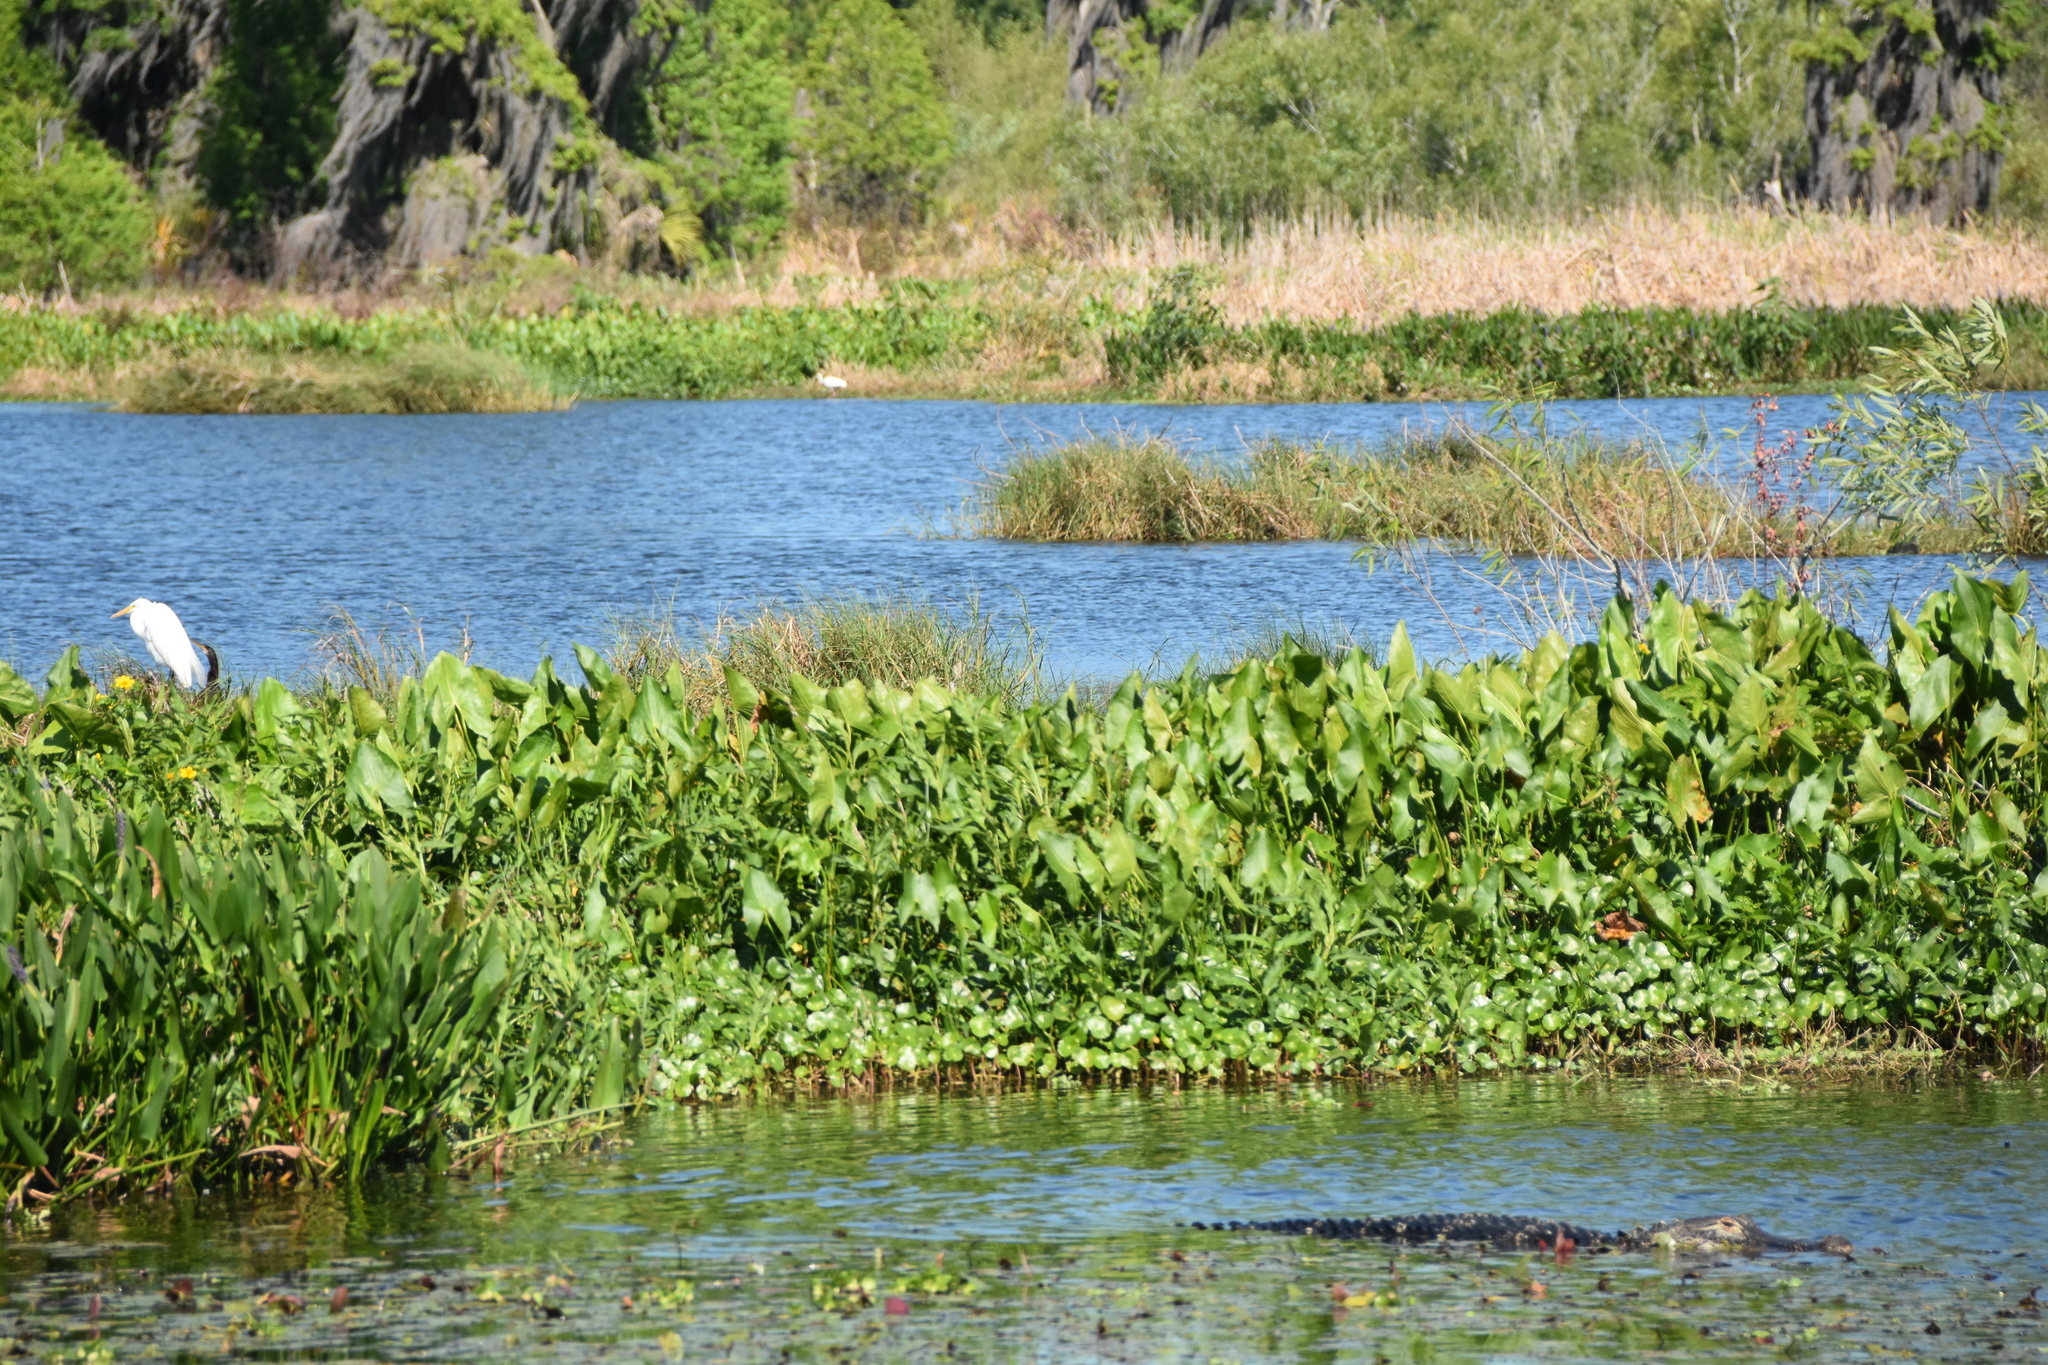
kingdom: Animalia
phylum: Chordata
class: Aves
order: Pelecaniformes
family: Ardeidae
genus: Ardea
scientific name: Ardea alba
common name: Great egret
